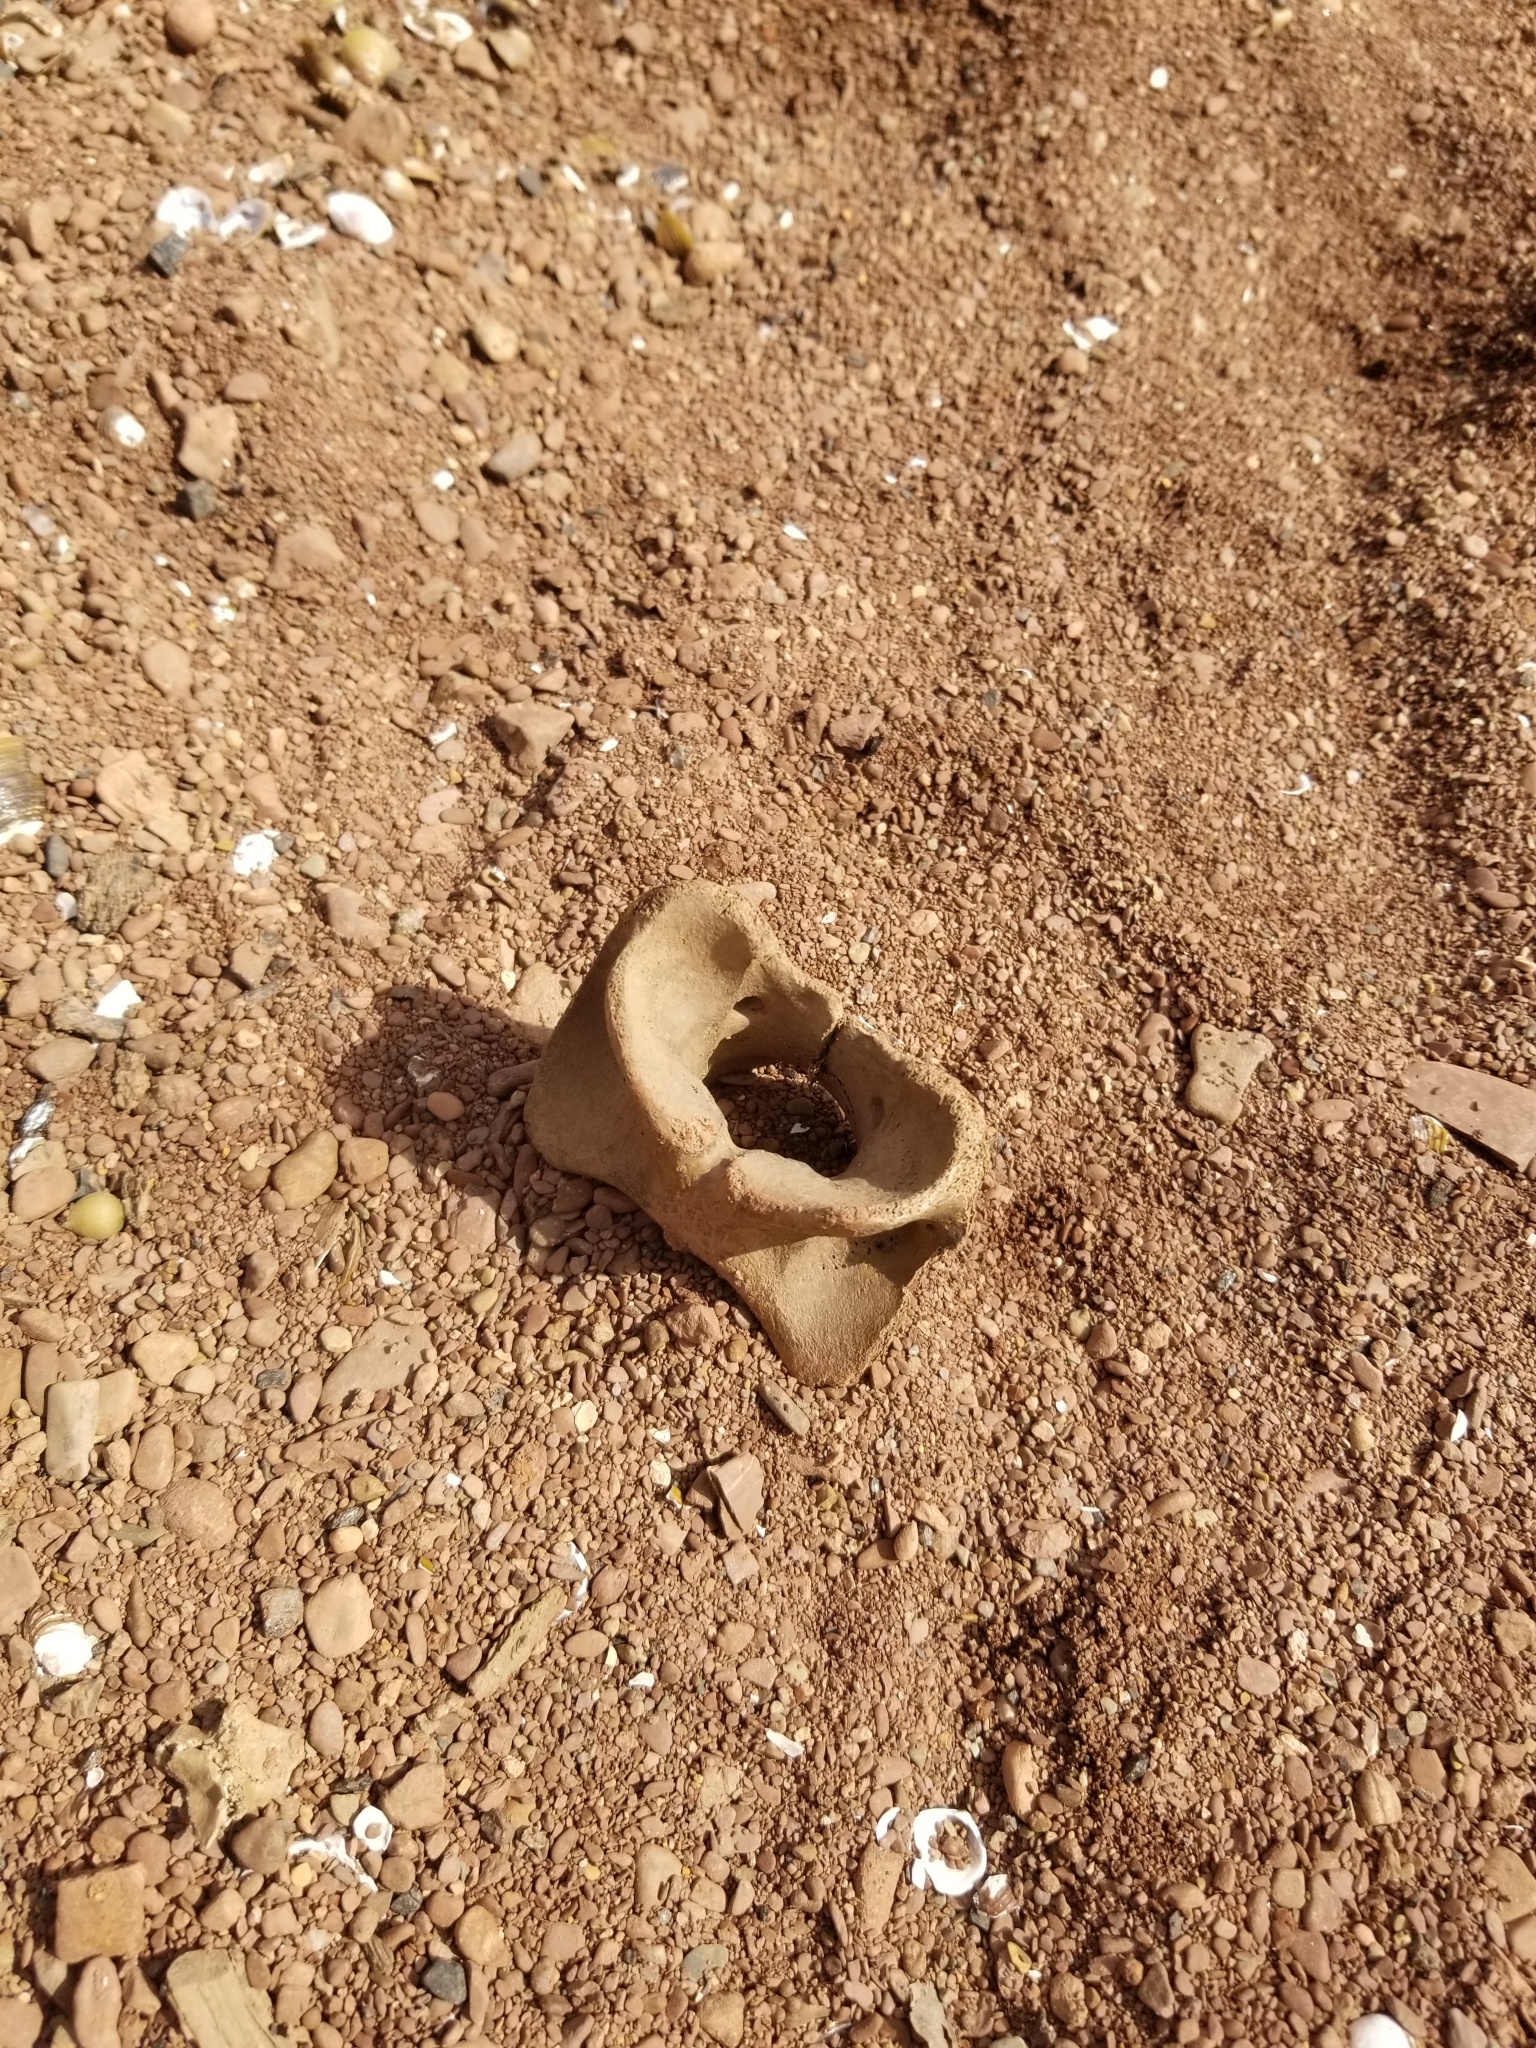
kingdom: Animalia
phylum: Chordata
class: Mammalia
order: Artiodactyla
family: Cervidae
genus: Odocoileus
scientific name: Odocoileus virginianus
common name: White-tailed deer
